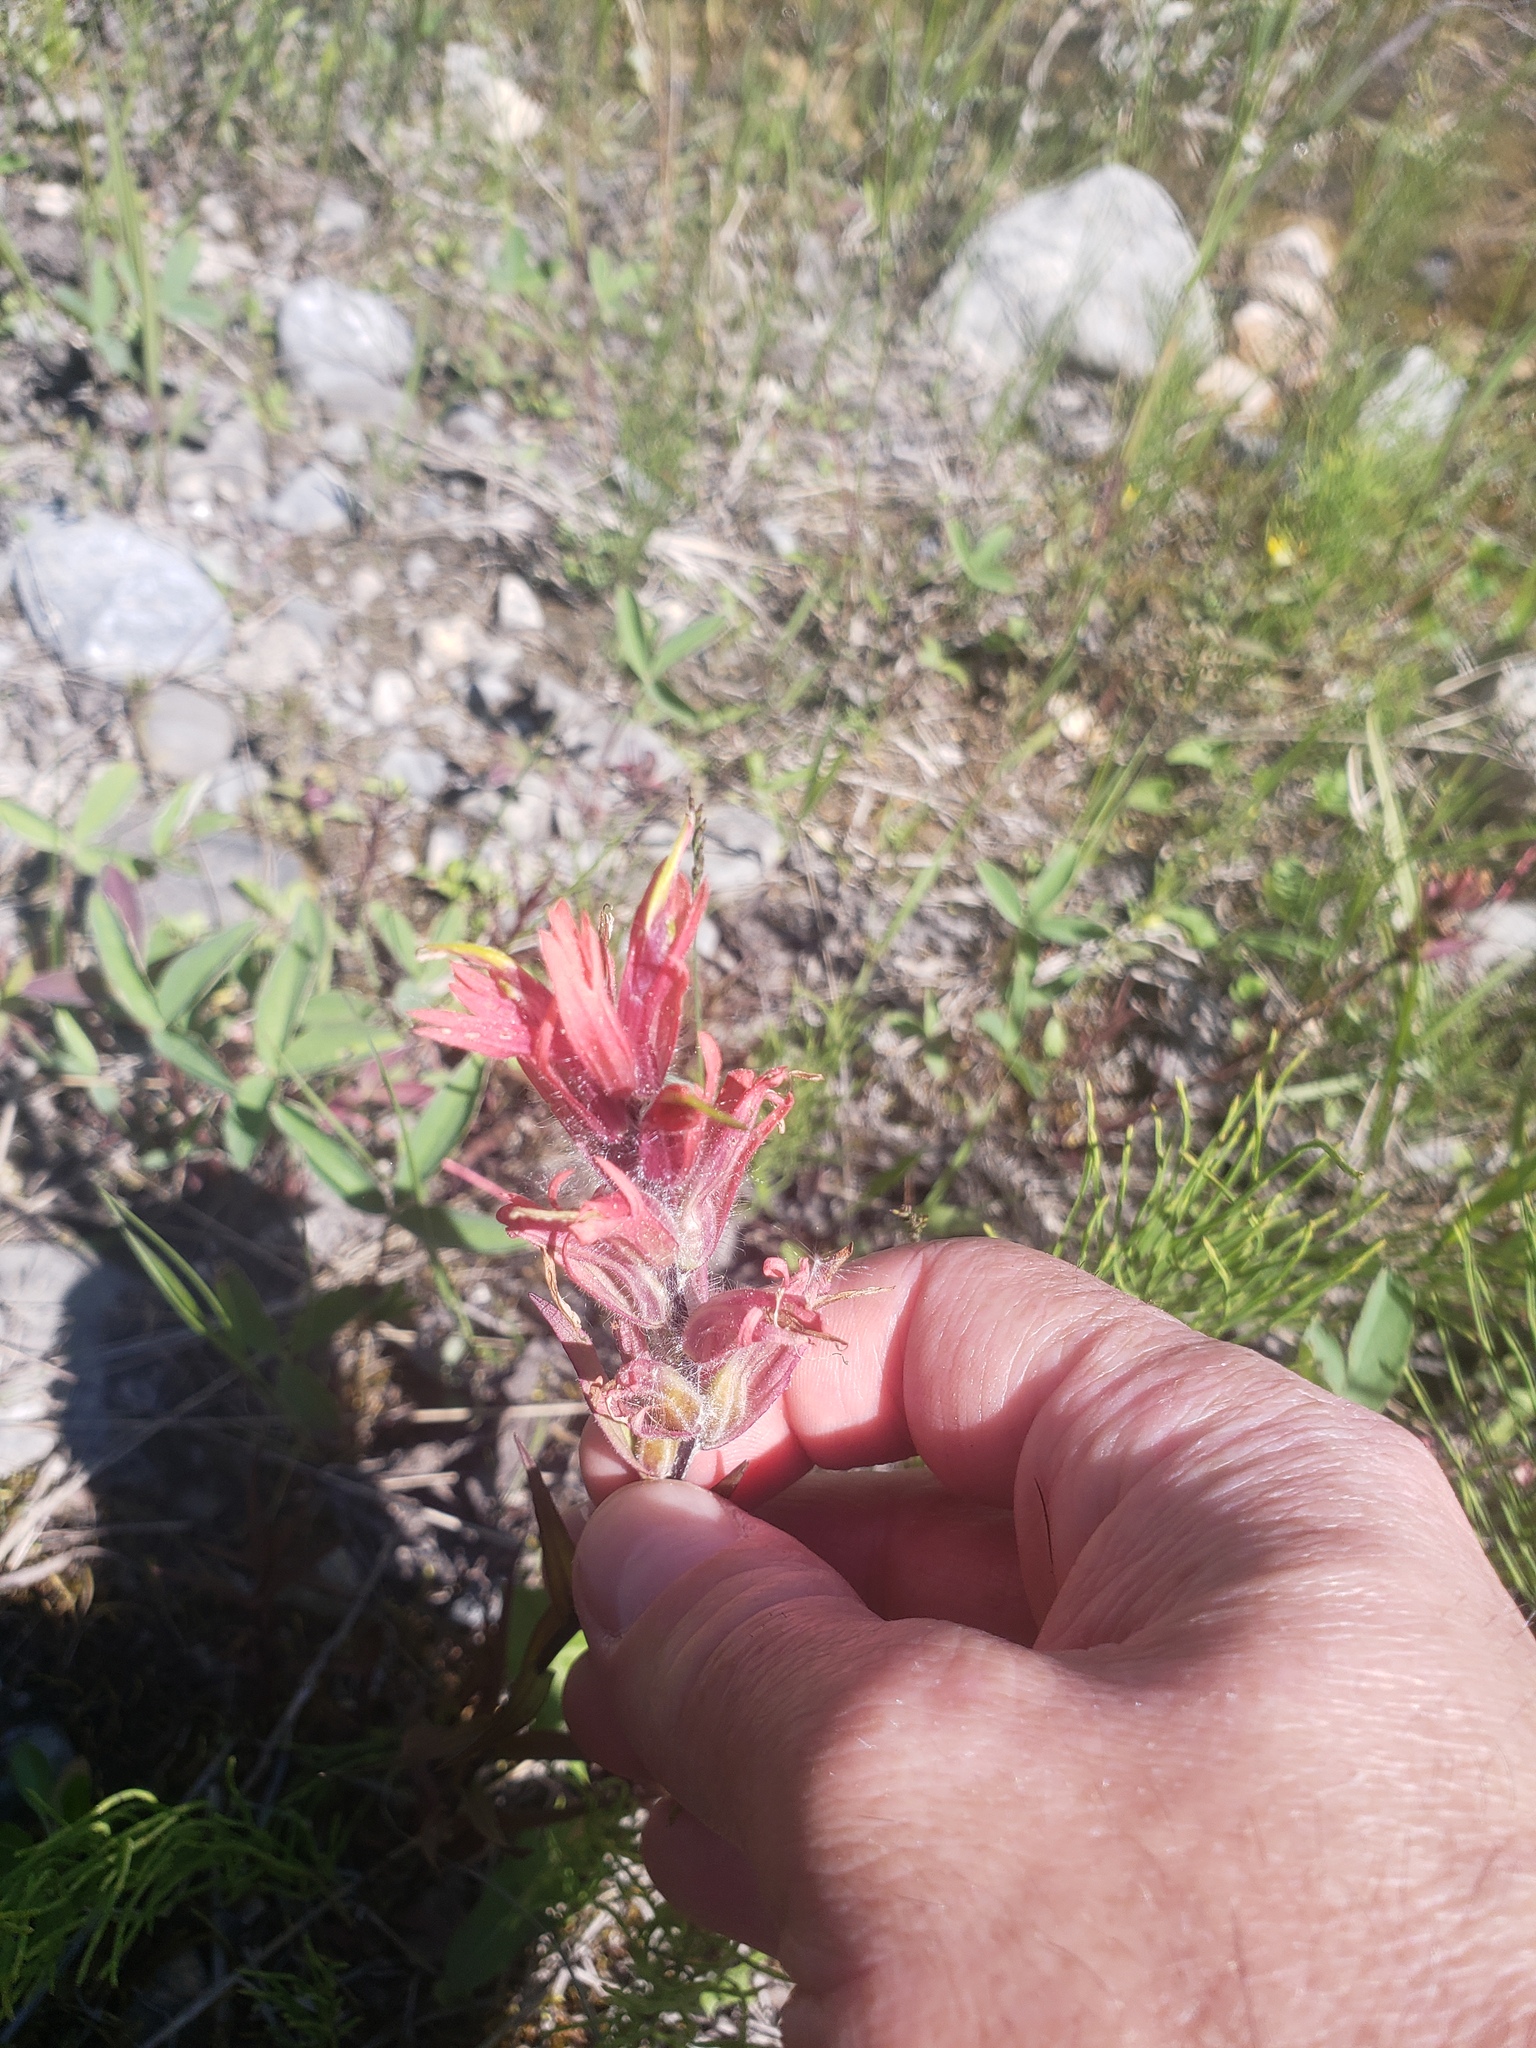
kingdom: Plantae
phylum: Tracheophyta
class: Magnoliopsida
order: Lamiales
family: Orobanchaceae
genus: Castilleja
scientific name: Castilleja miniata
